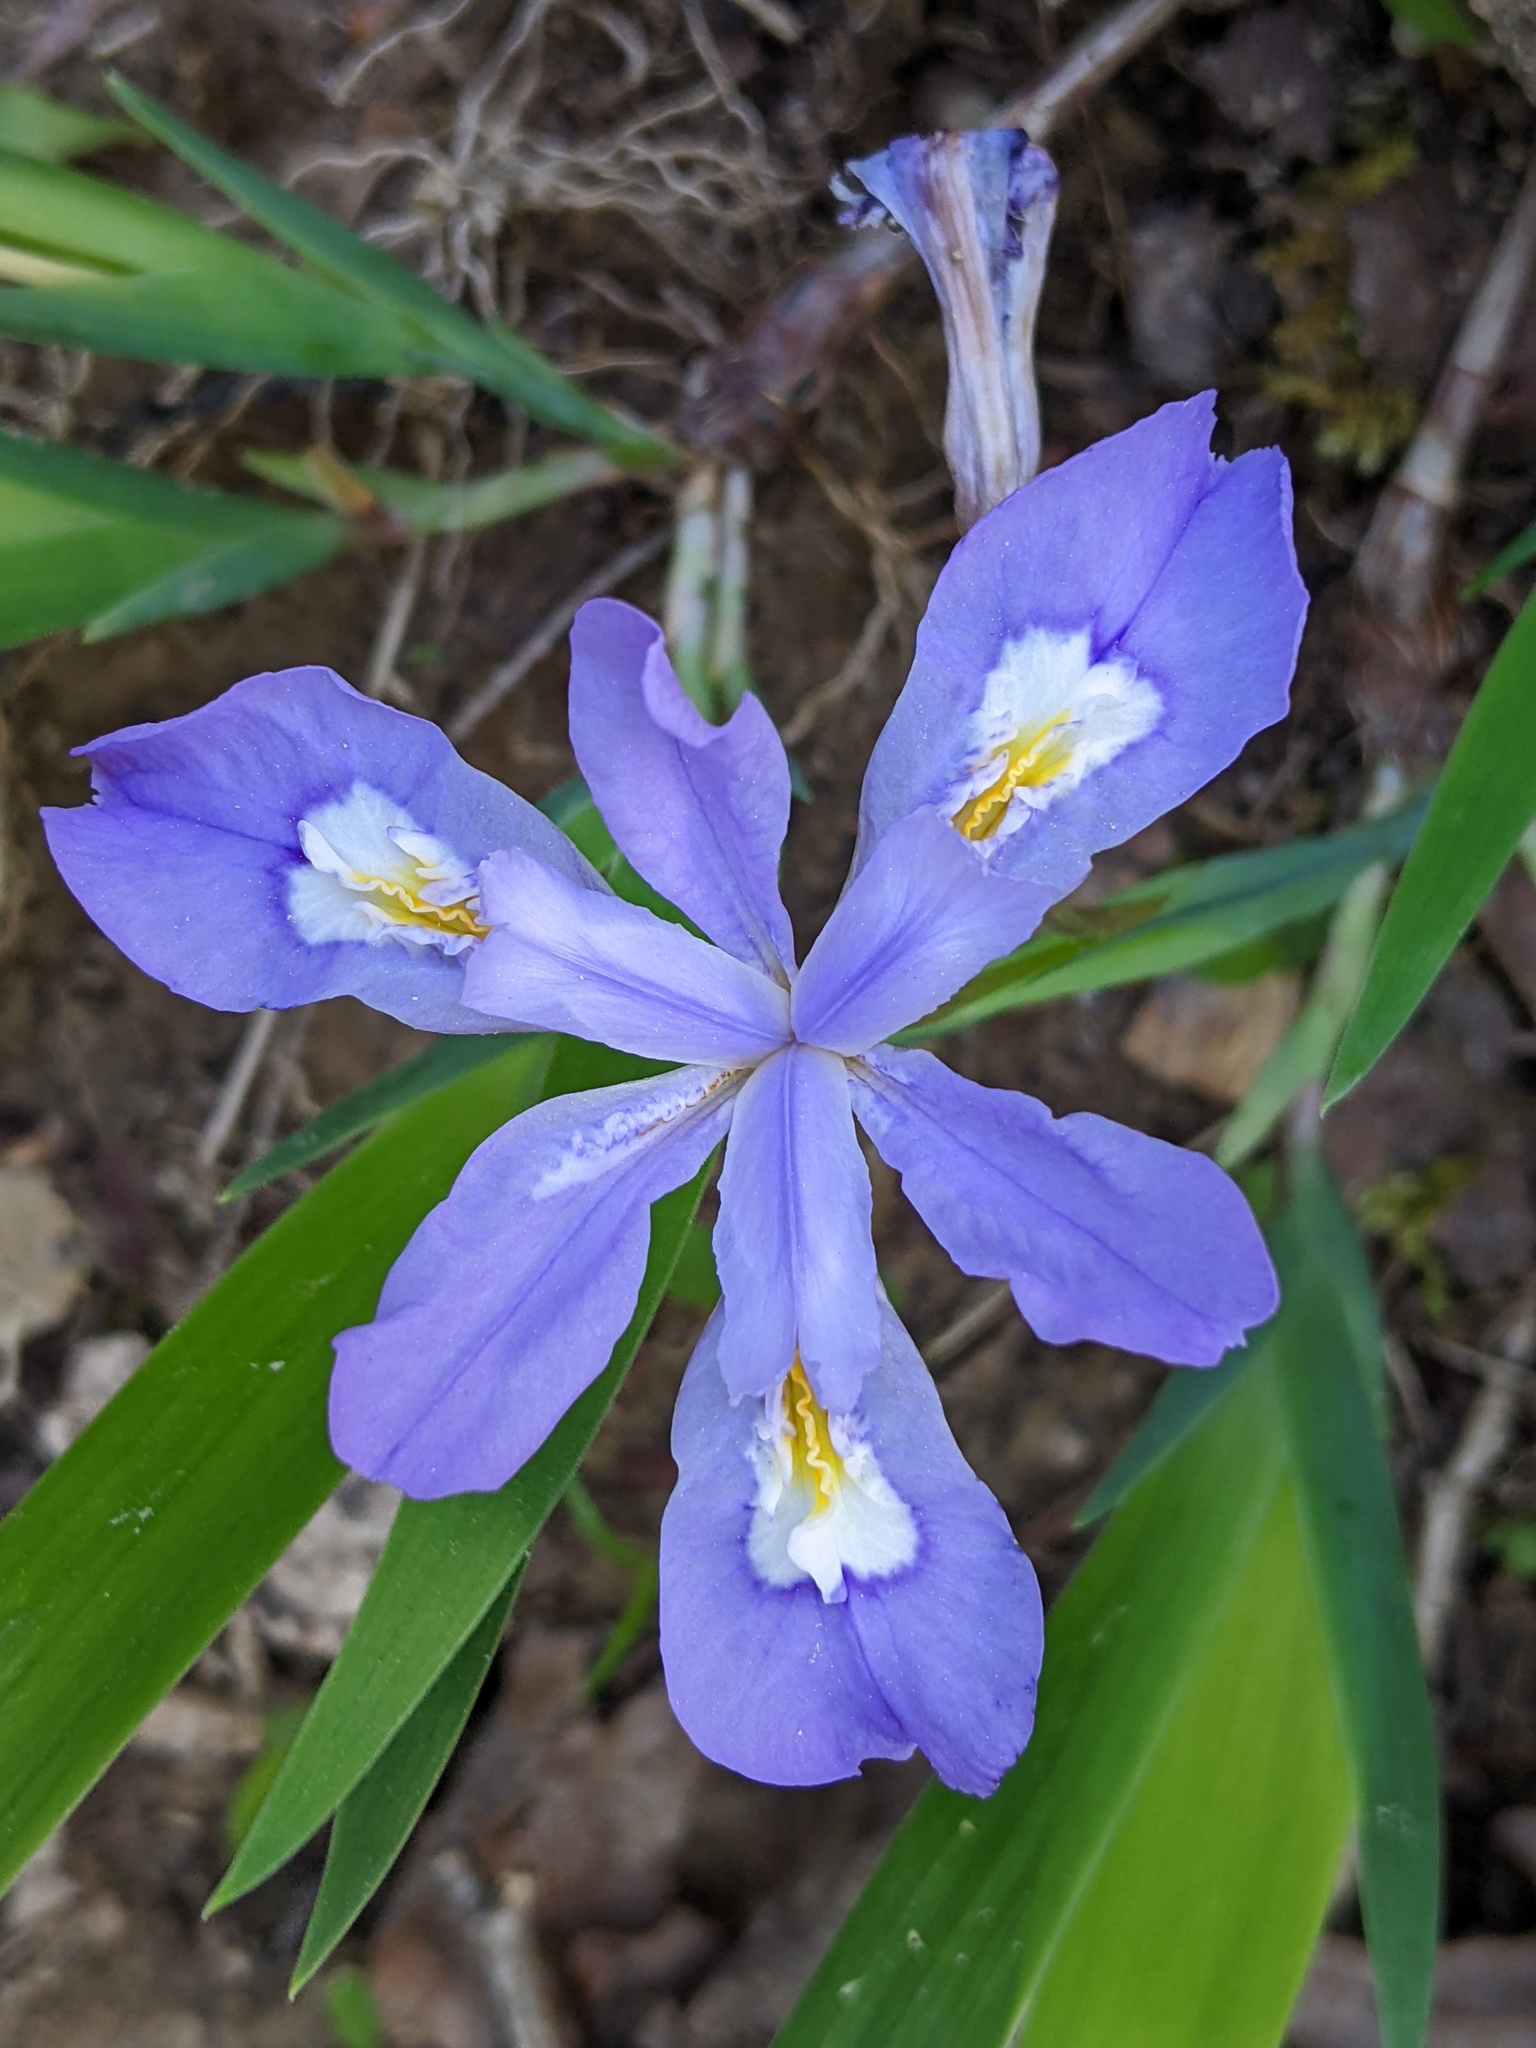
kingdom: Plantae
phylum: Tracheophyta
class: Liliopsida
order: Asparagales
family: Iridaceae
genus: Iris
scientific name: Iris cristata
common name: Crested iris
